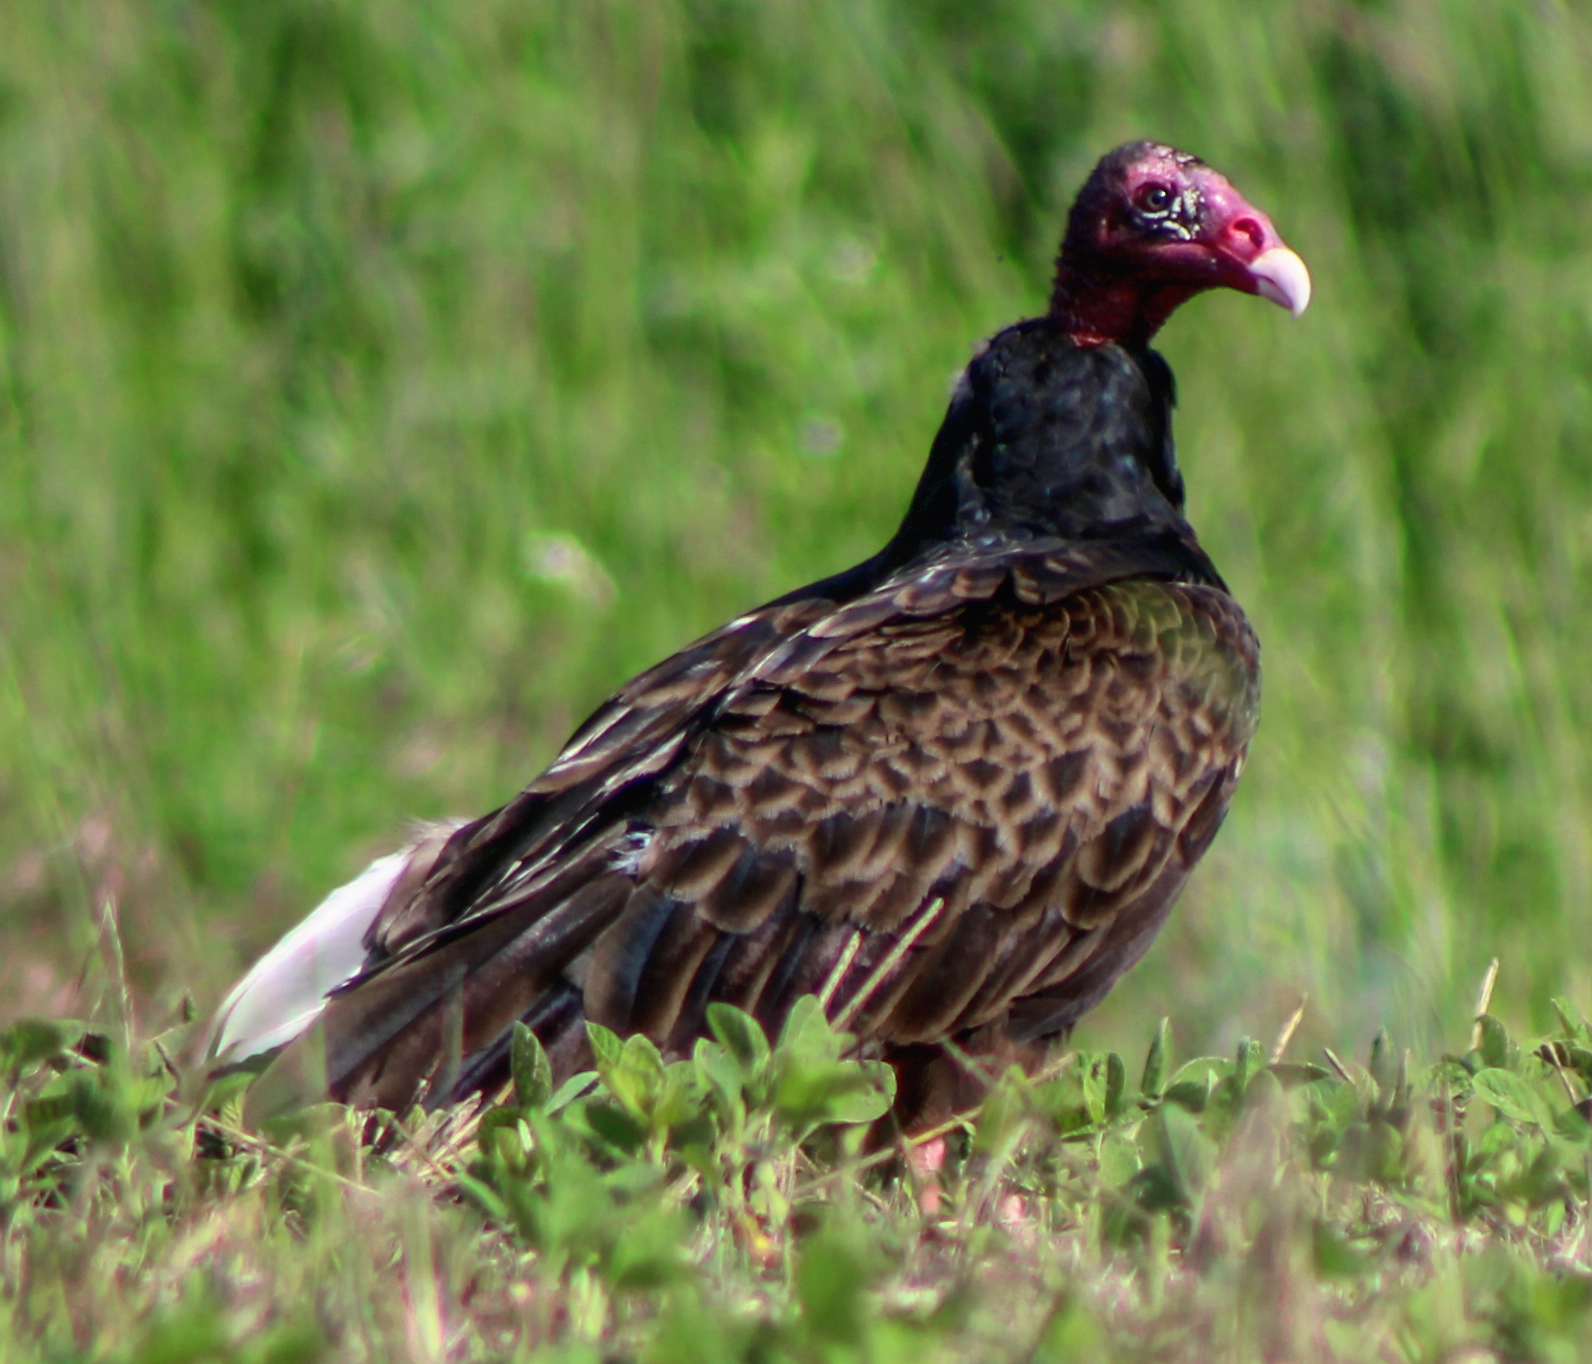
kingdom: Animalia
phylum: Chordata
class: Aves
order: Accipitriformes
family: Cathartidae
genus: Cathartes
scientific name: Cathartes aura
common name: Turkey vulture
